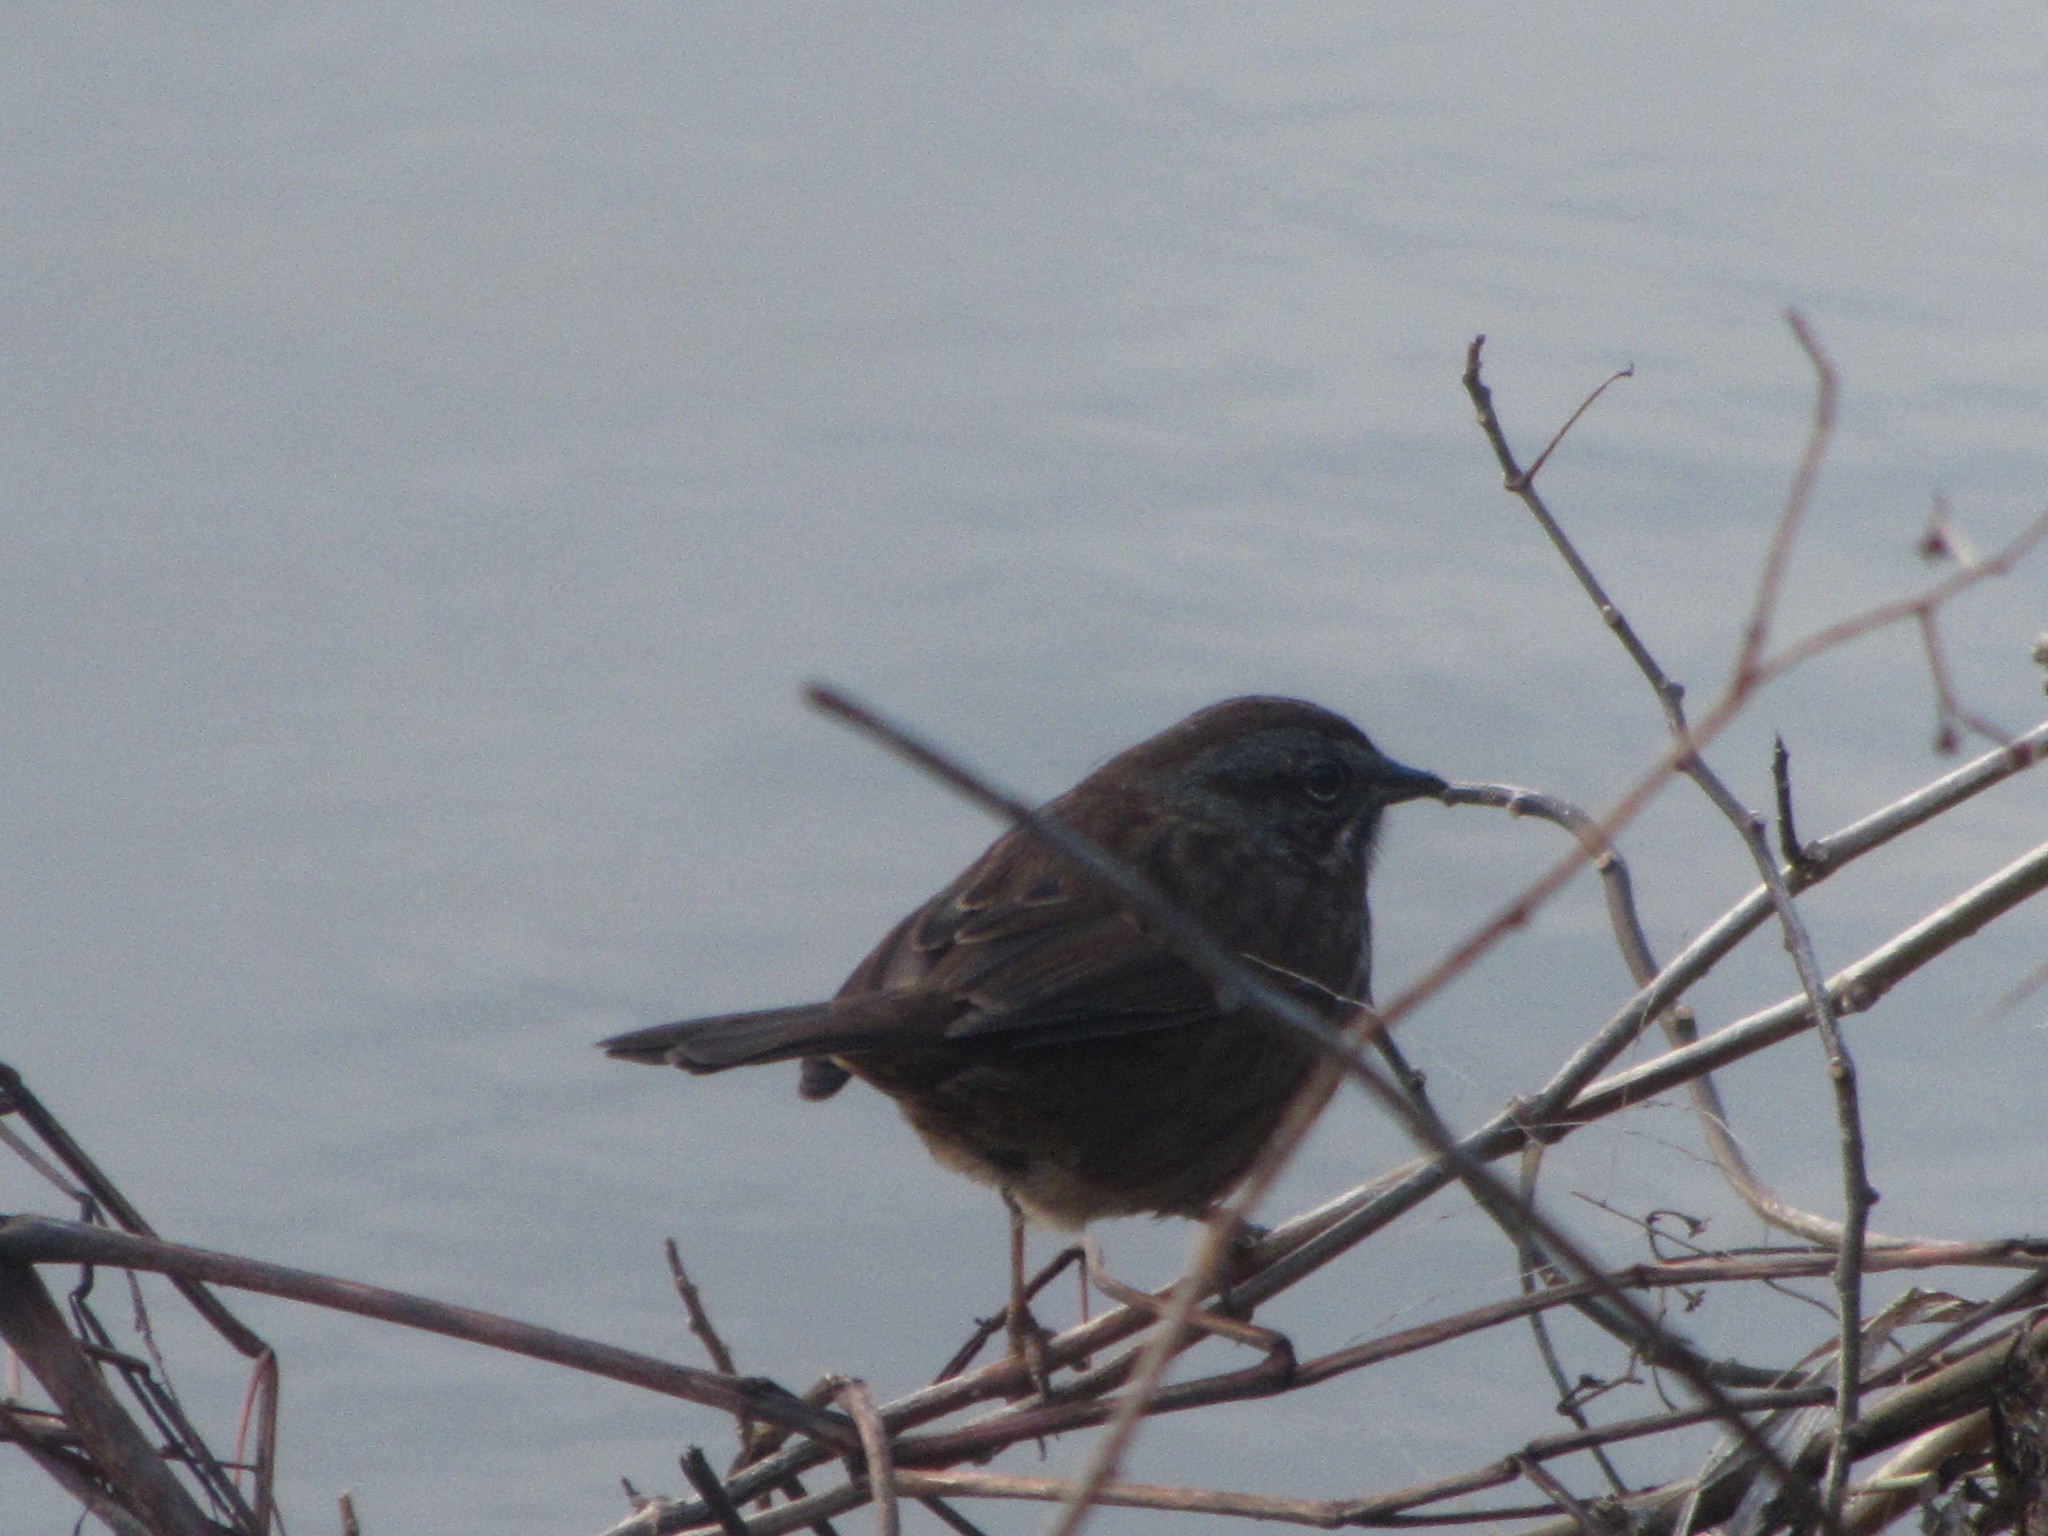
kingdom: Animalia
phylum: Chordata
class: Aves
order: Passeriformes
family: Passerellidae
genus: Melospiza
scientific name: Melospiza melodia
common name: Song sparrow
